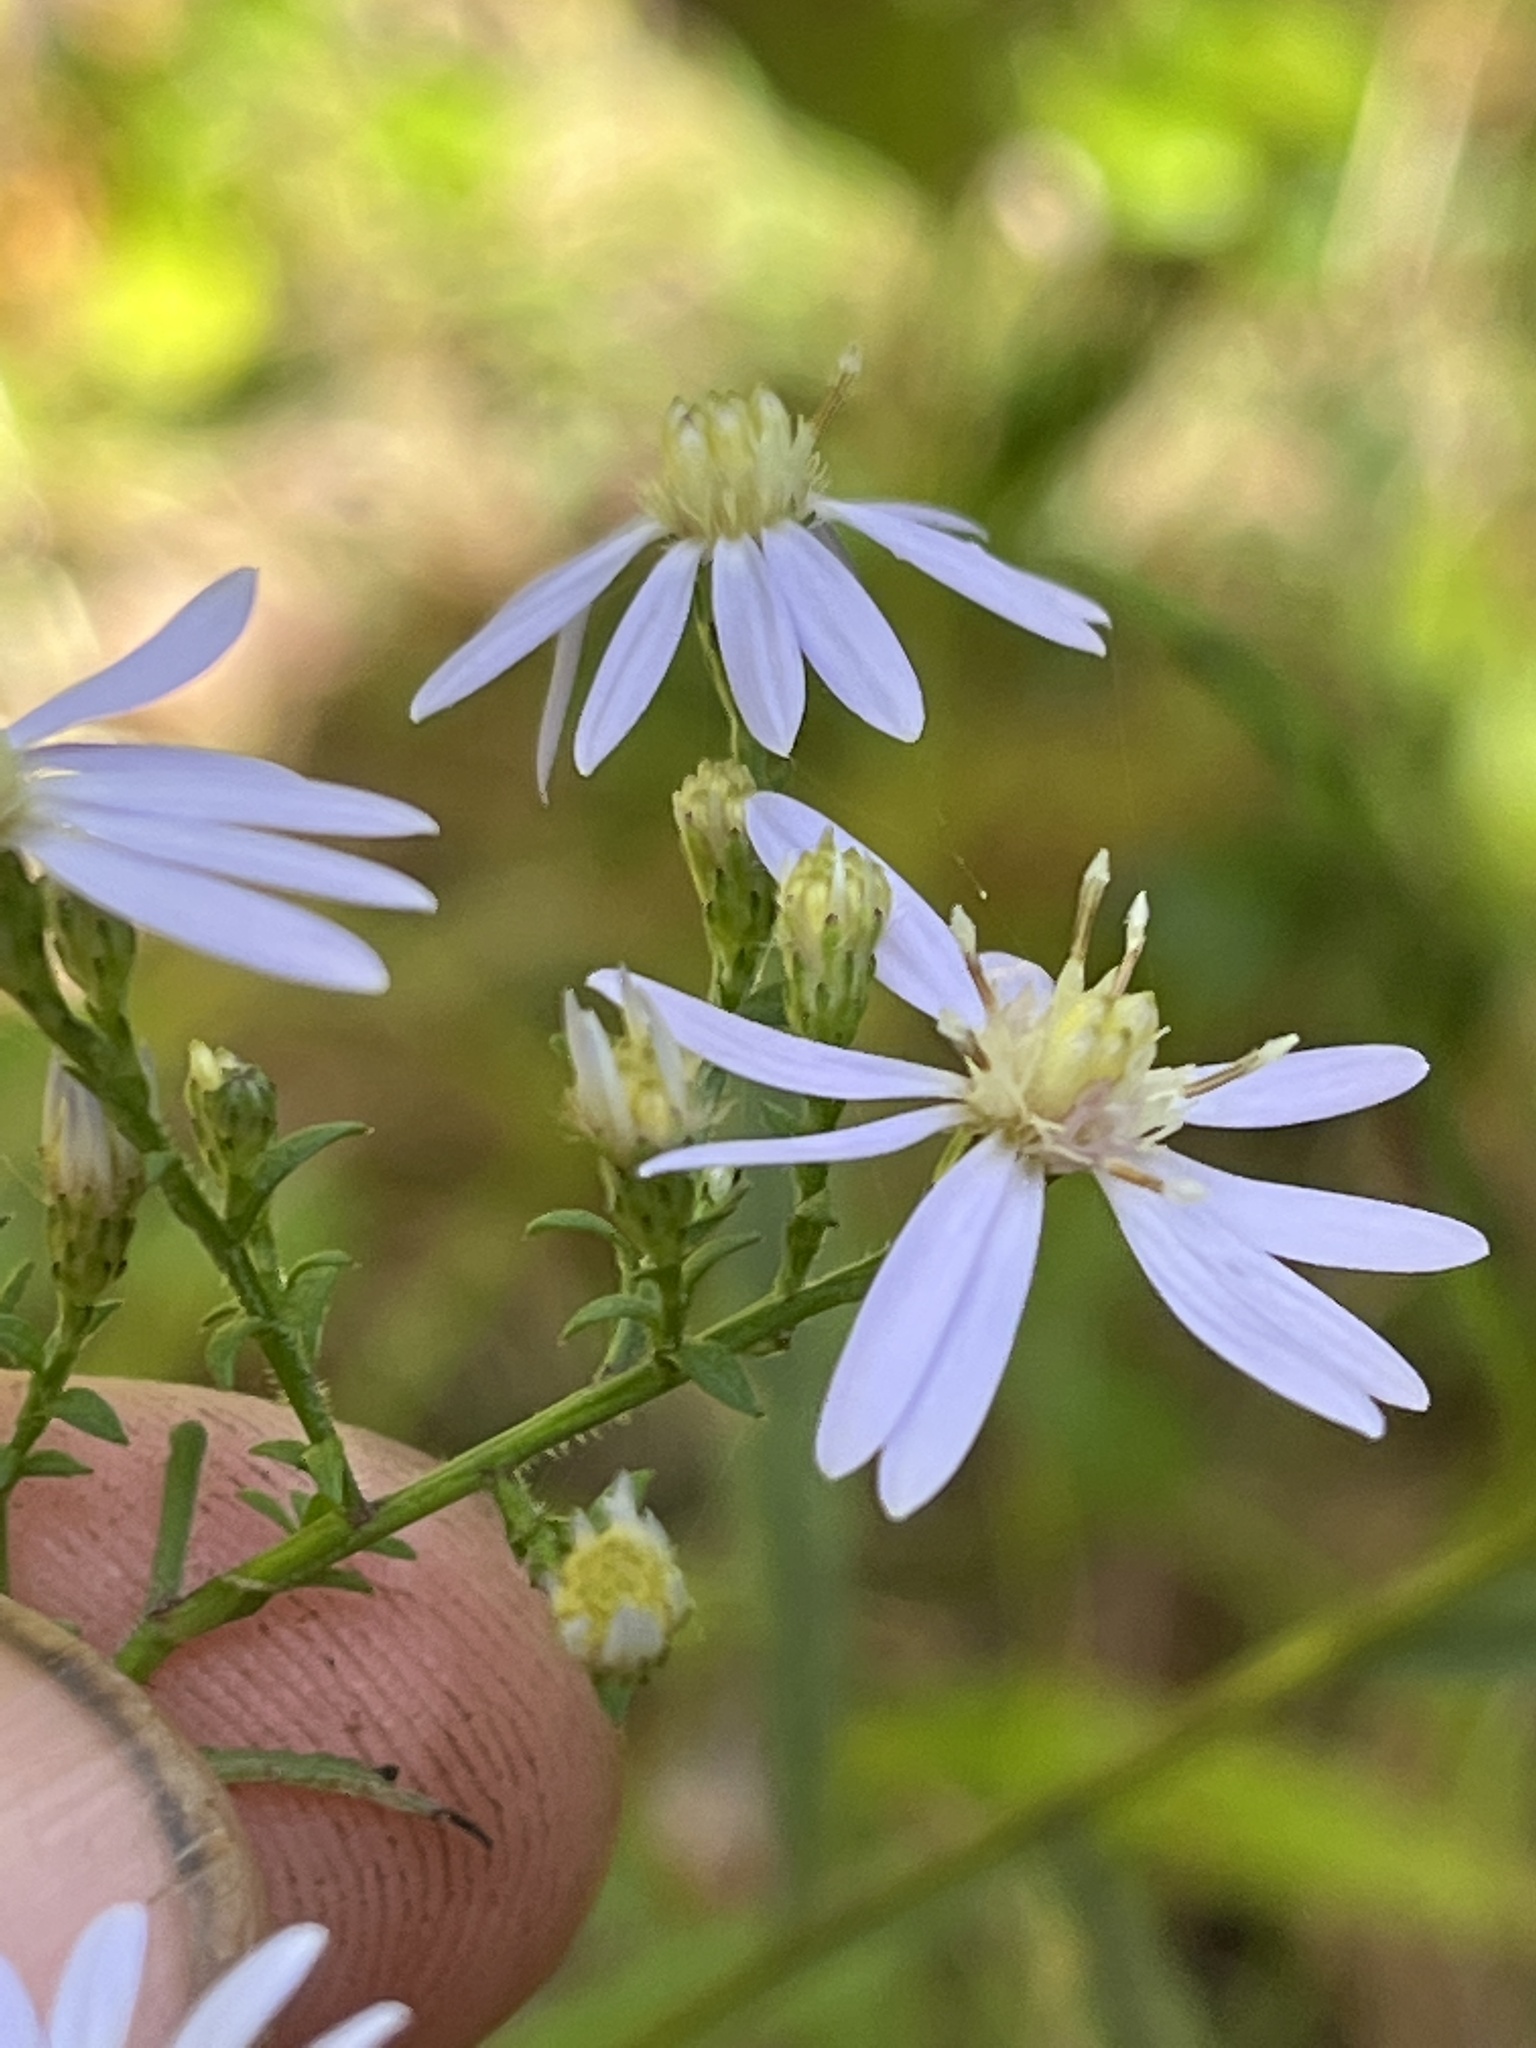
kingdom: Plantae
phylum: Tracheophyta
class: Magnoliopsida
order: Asterales
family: Asteraceae
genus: Symphyotrichum
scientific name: Symphyotrichum cordifolium
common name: Beeweed
